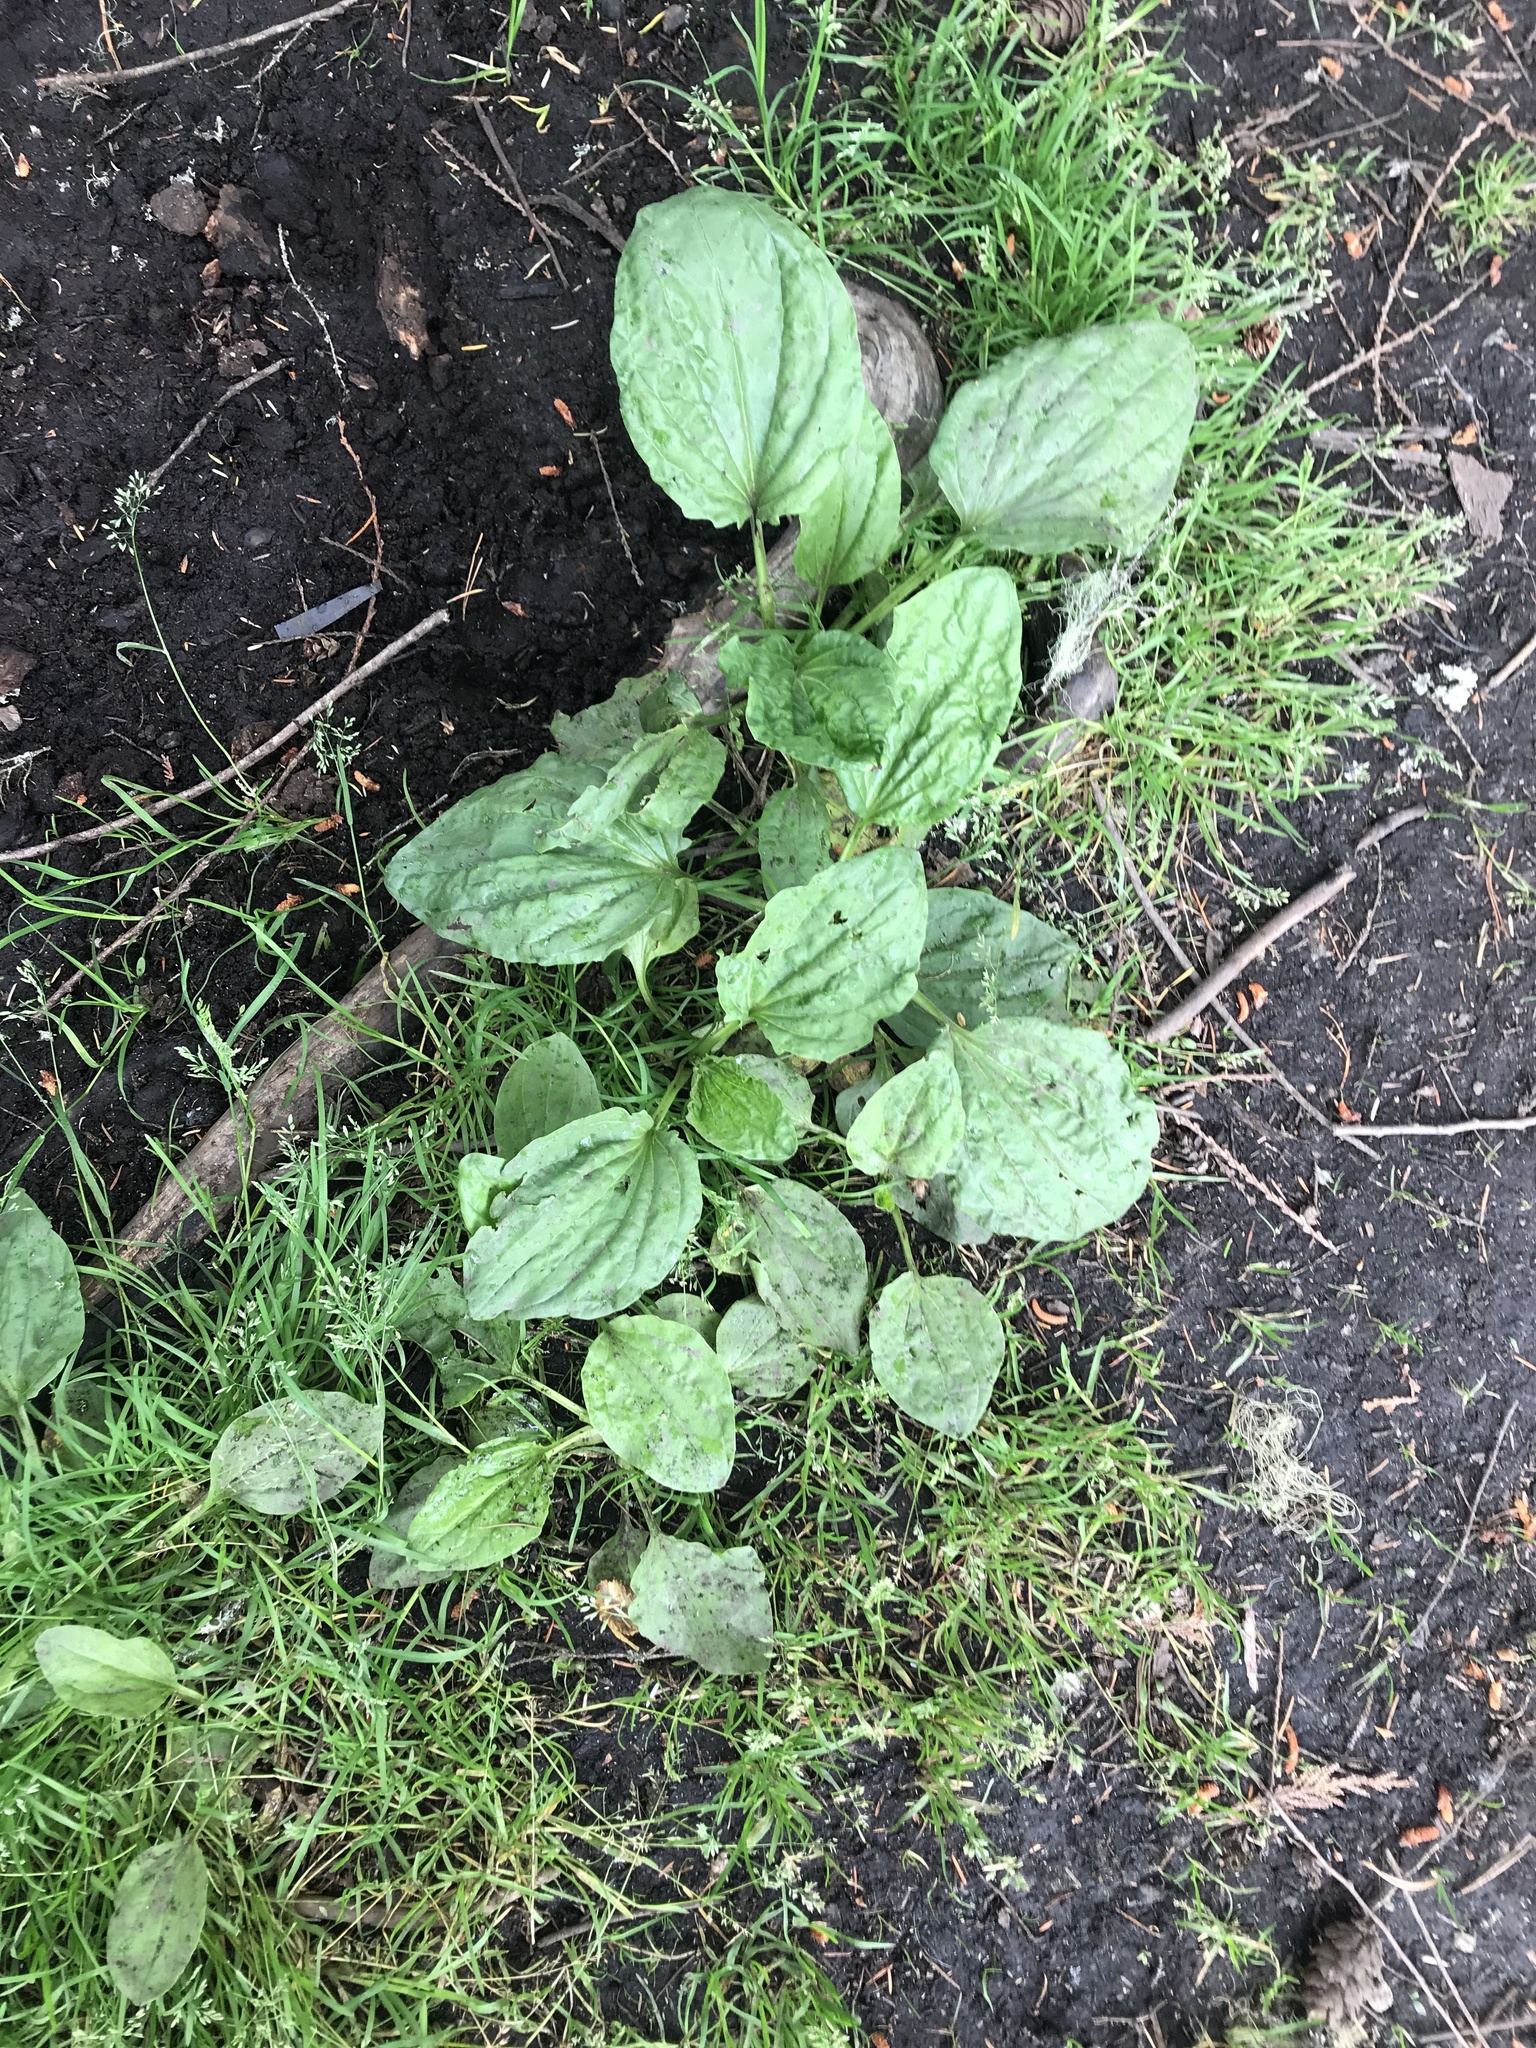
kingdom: Plantae
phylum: Tracheophyta
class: Magnoliopsida
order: Lamiales
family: Plantaginaceae
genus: Plantago
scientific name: Plantago major
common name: Common plantain
